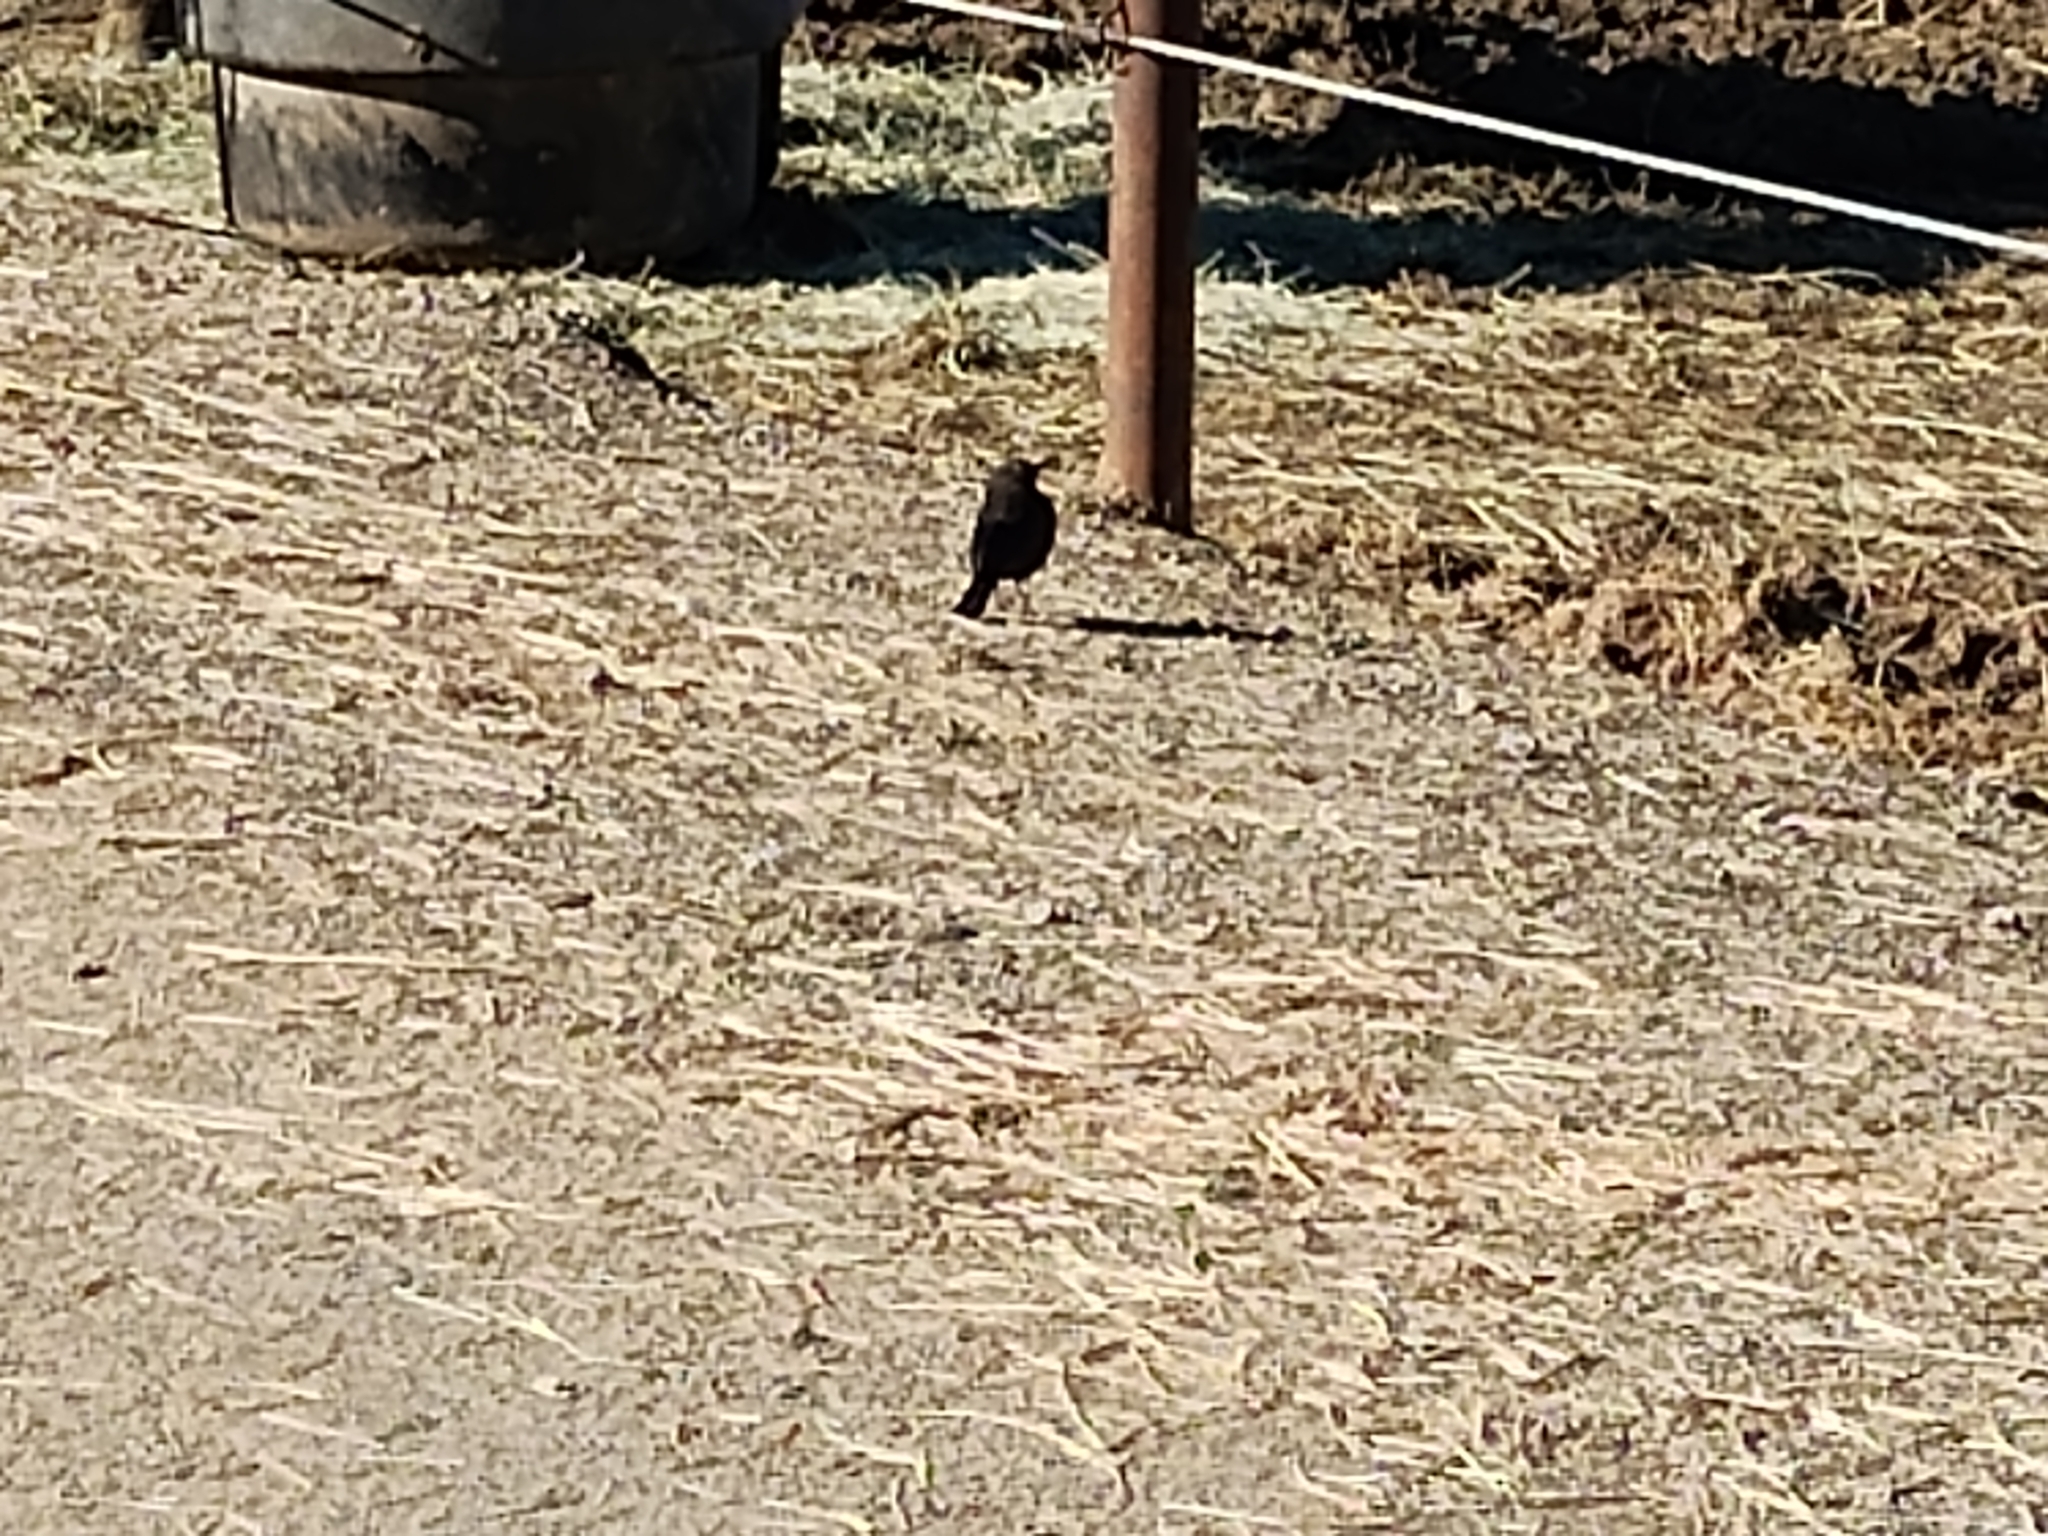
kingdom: Animalia
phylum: Chordata
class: Aves
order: Passeriformes
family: Icteridae
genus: Euphagus
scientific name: Euphagus cyanocephalus
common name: Brewer's blackbird
